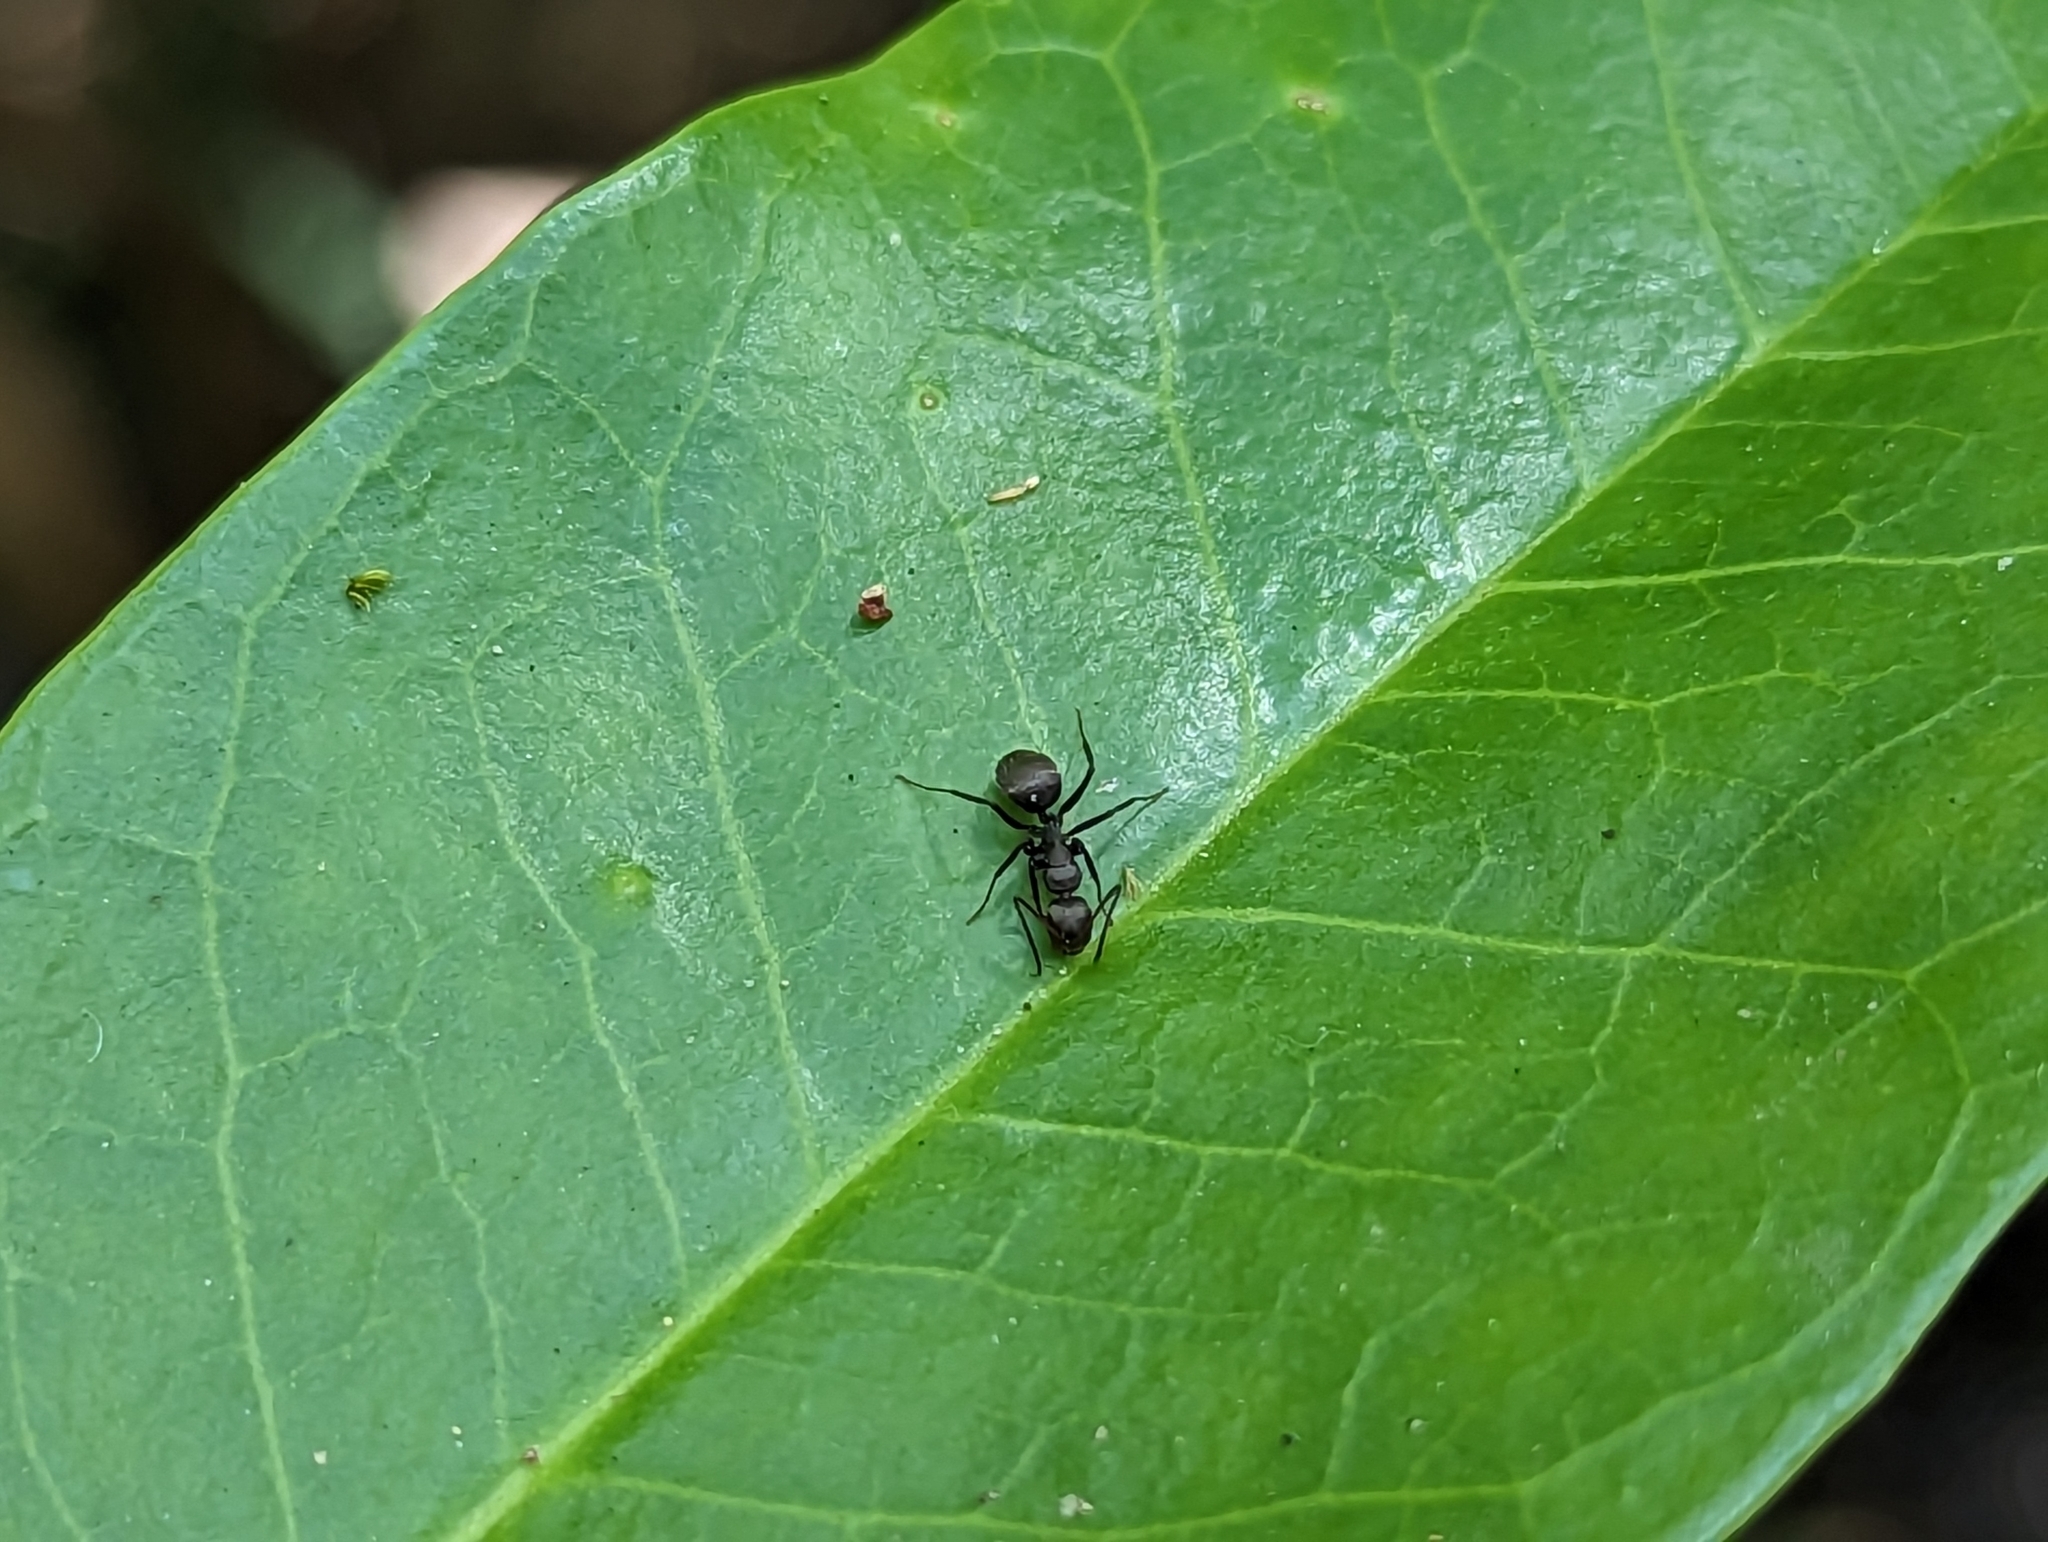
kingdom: Animalia
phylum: Arthropoda
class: Insecta
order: Hymenoptera
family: Formicidae
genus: Camponotus
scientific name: Camponotus novogranadensis
